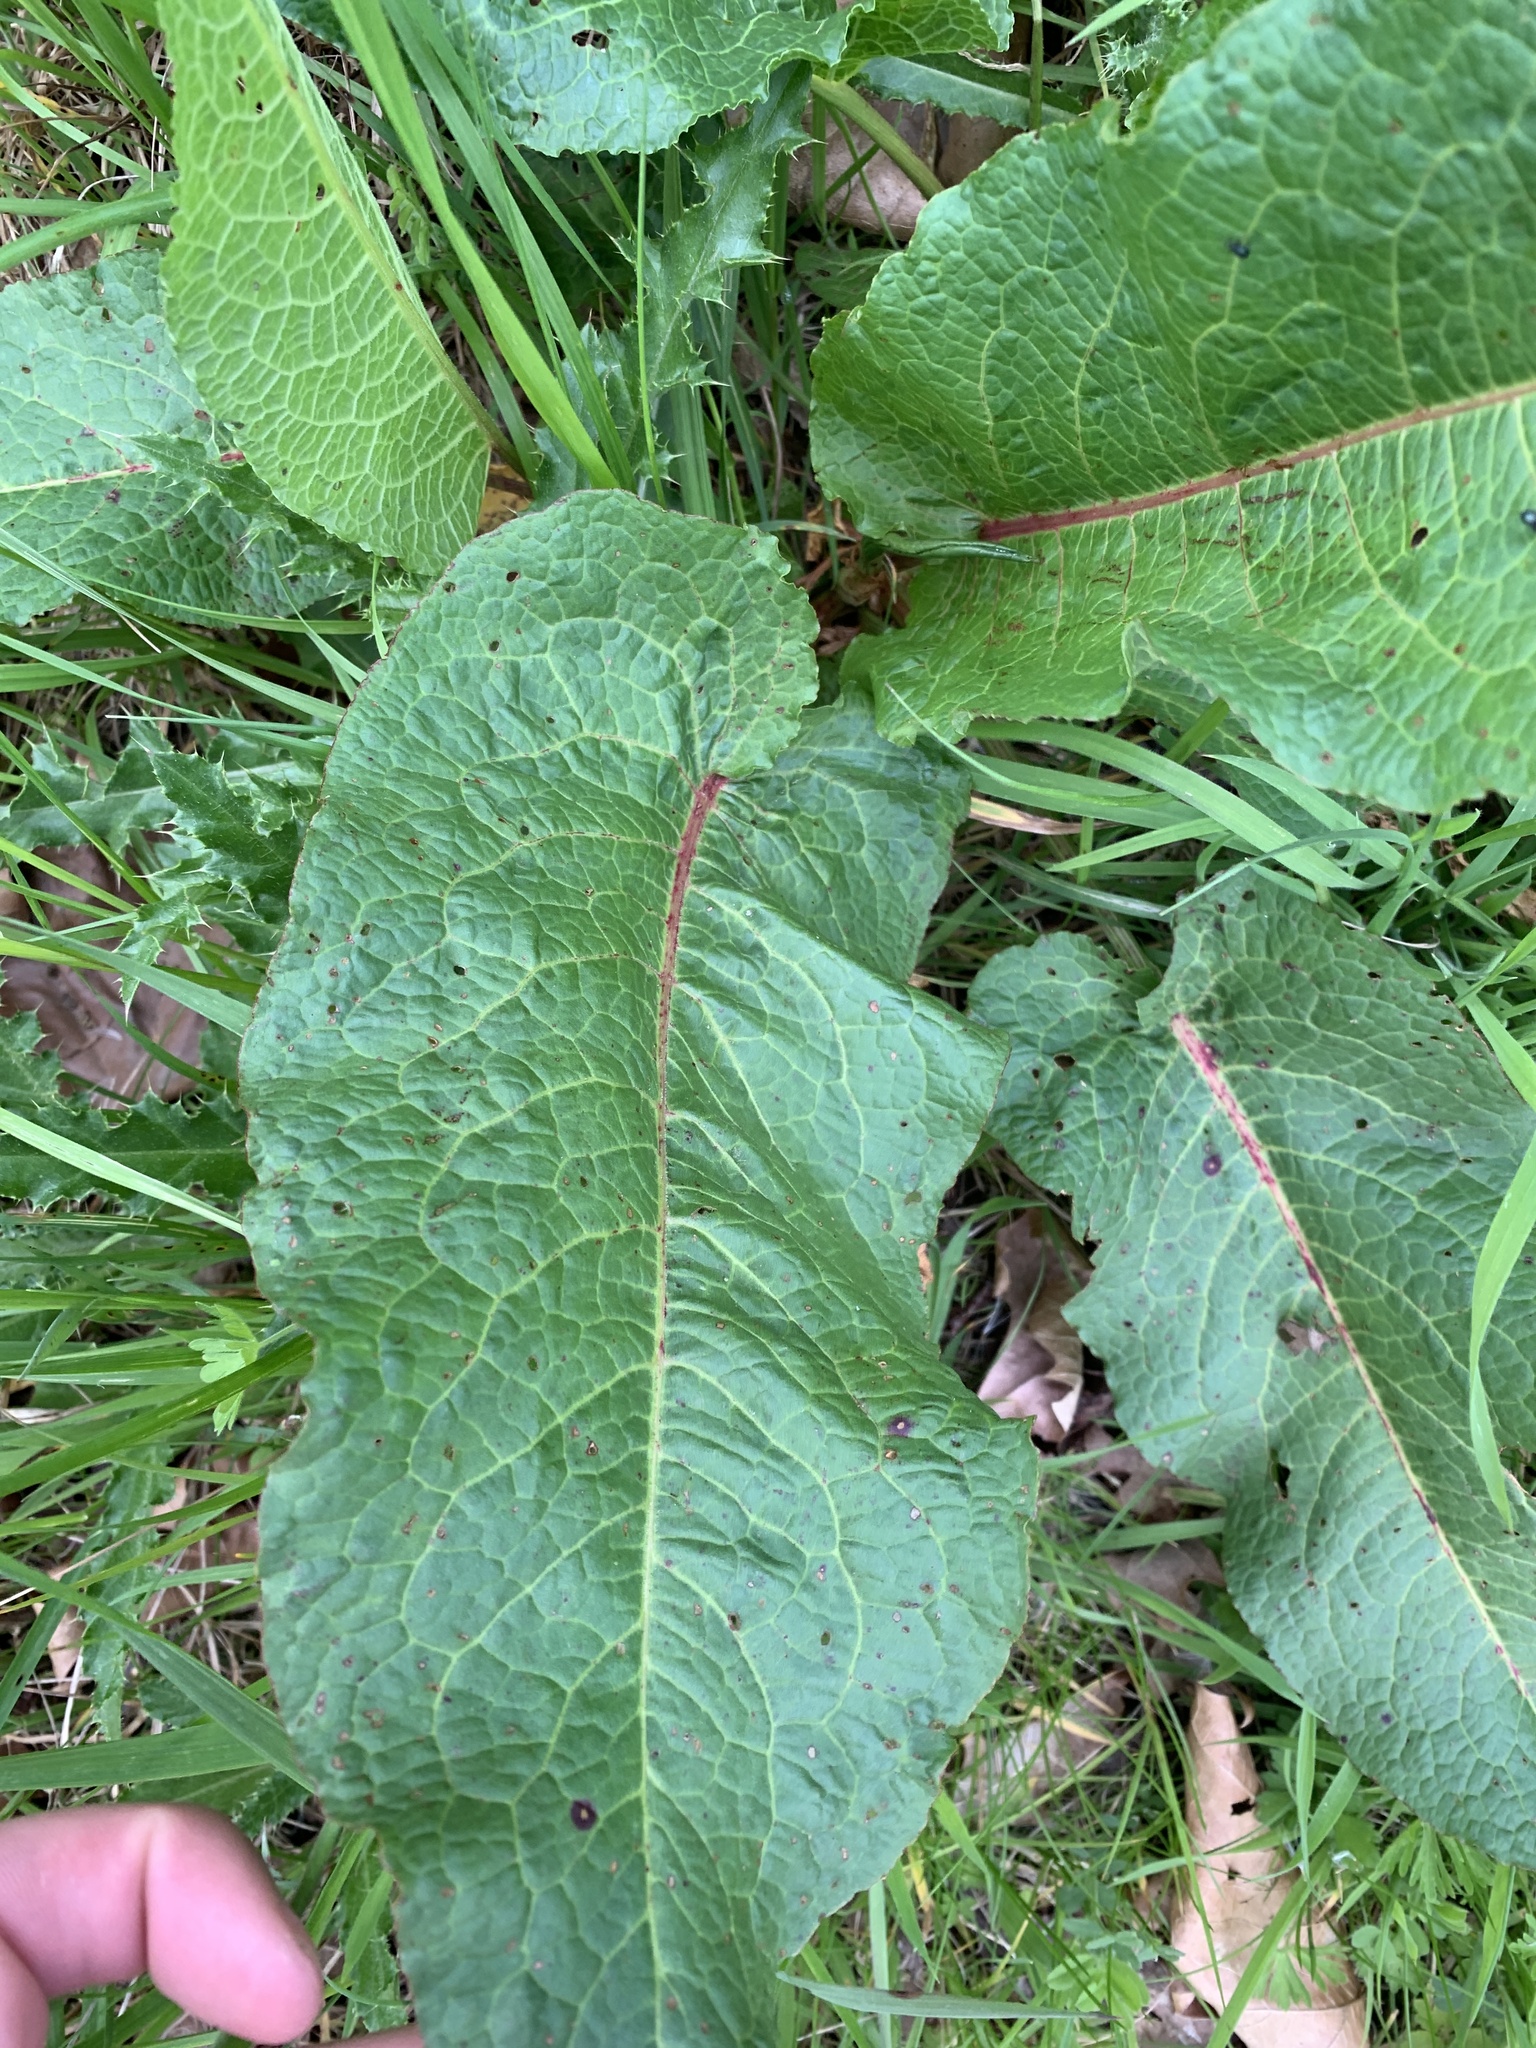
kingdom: Plantae
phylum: Tracheophyta
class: Magnoliopsida
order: Caryophyllales
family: Polygonaceae
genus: Rumex
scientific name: Rumex obtusifolius
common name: Bitter dock
